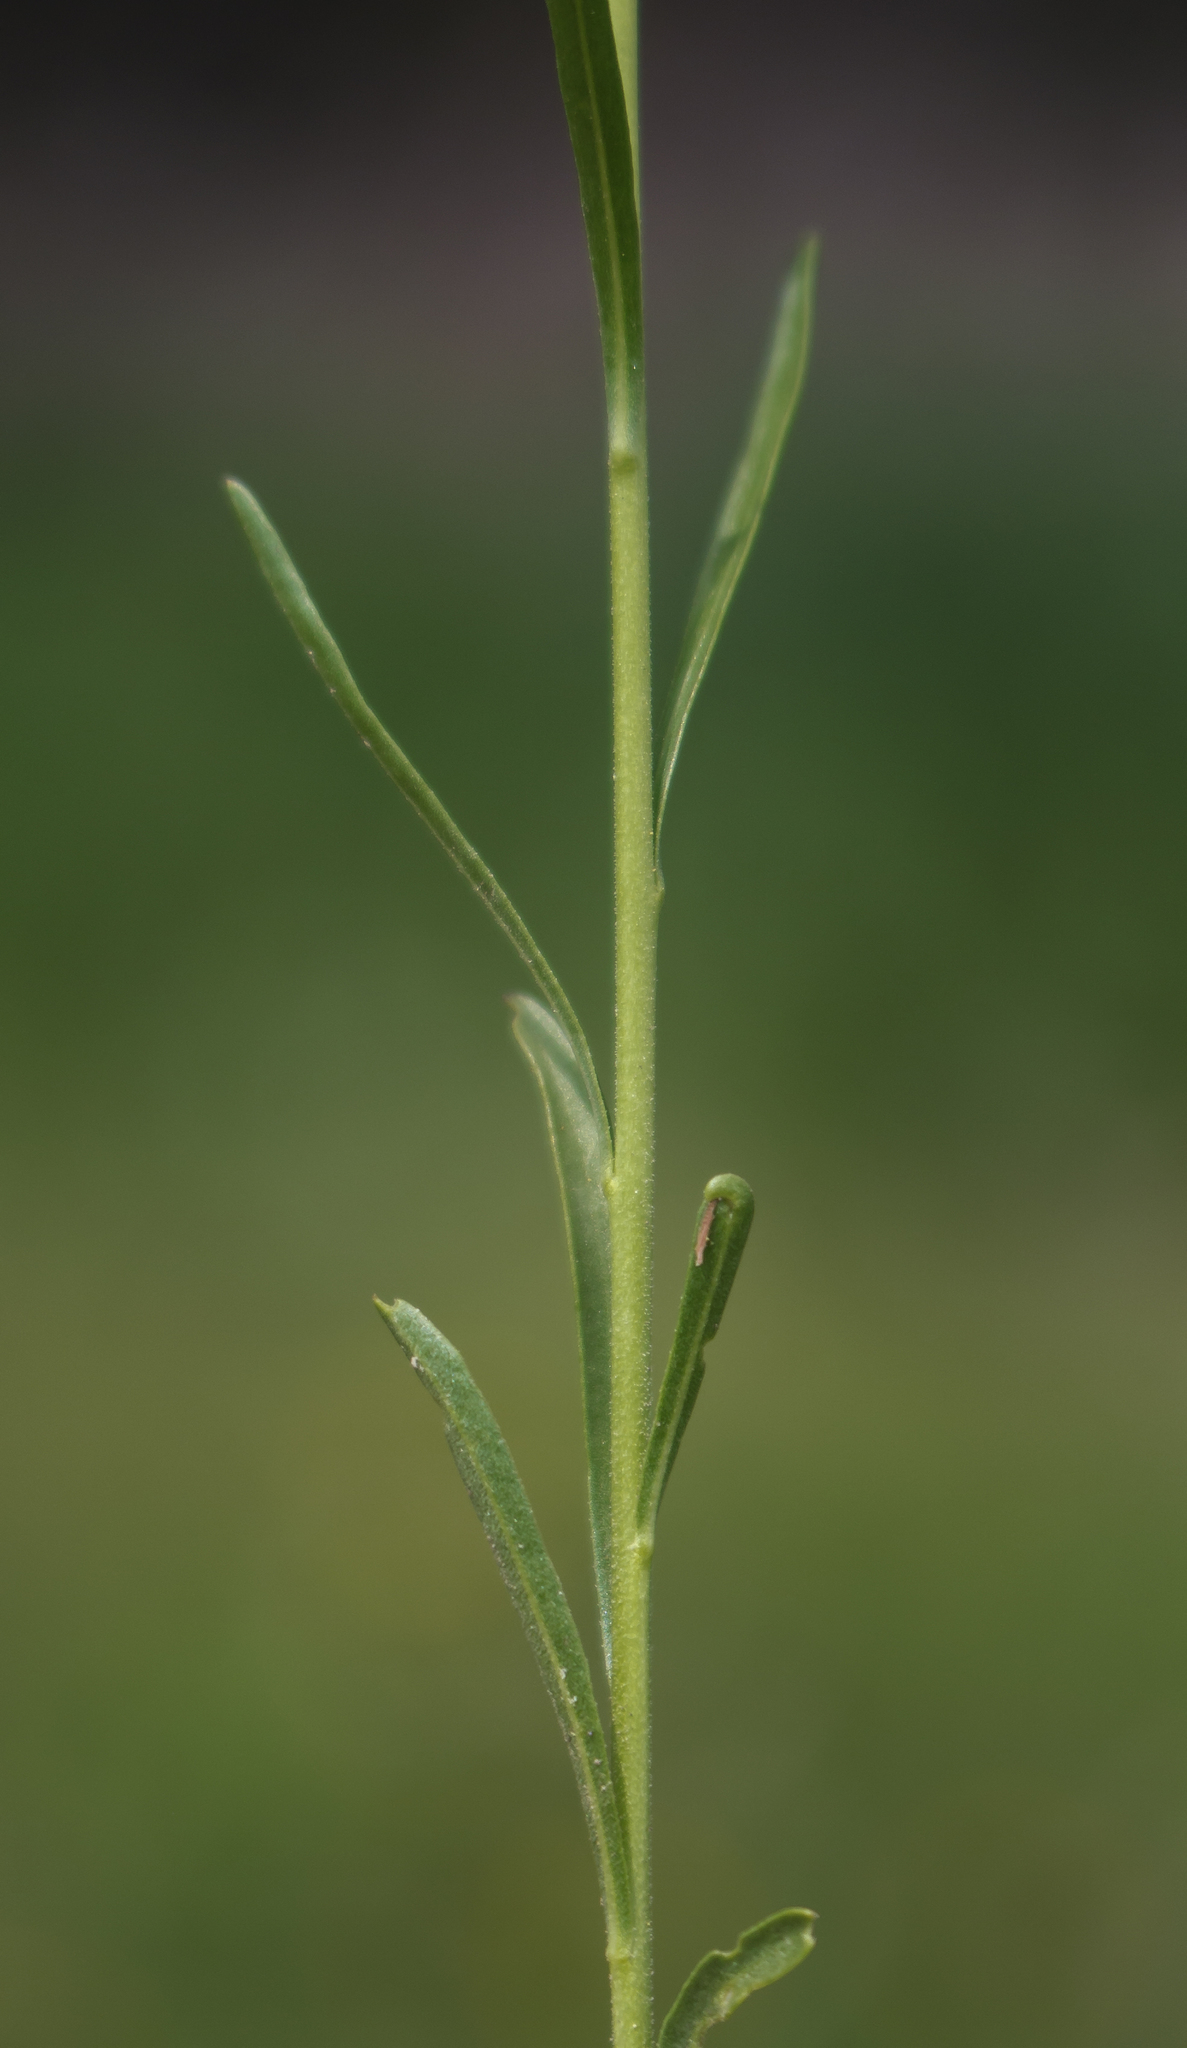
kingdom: Plantae
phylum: Tracheophyta
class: Magnoliopsida
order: Brassicales
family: Brassicaceae
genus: Lepidium
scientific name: Lepidium densiflorum
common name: Miner's pepperwort
